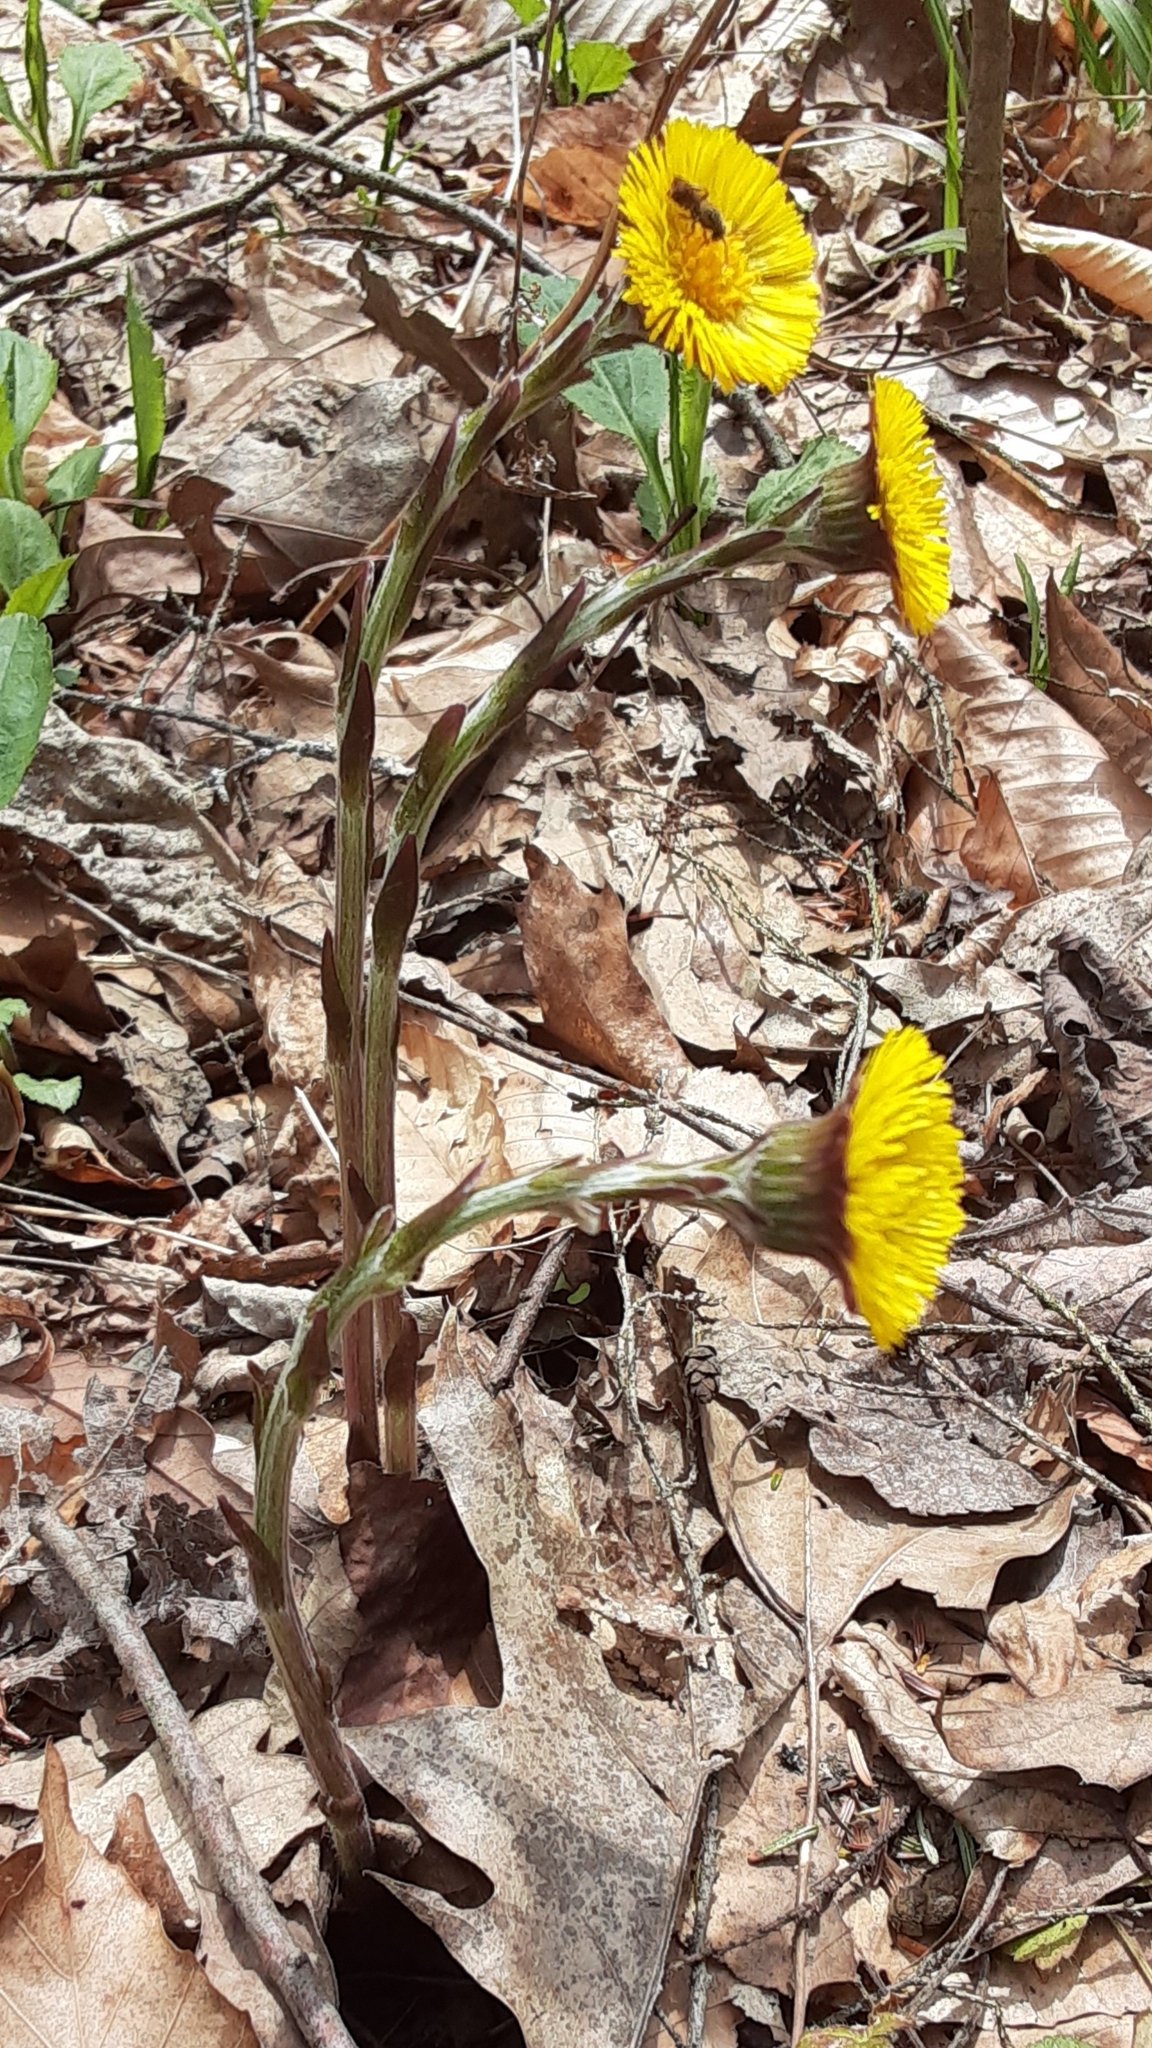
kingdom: Plantae
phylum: Tracheophyta
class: Magnoliopsida
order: Asterales
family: Asteraceae
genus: Tussilago
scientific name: Tussilago farfara
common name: Coltsfoot
